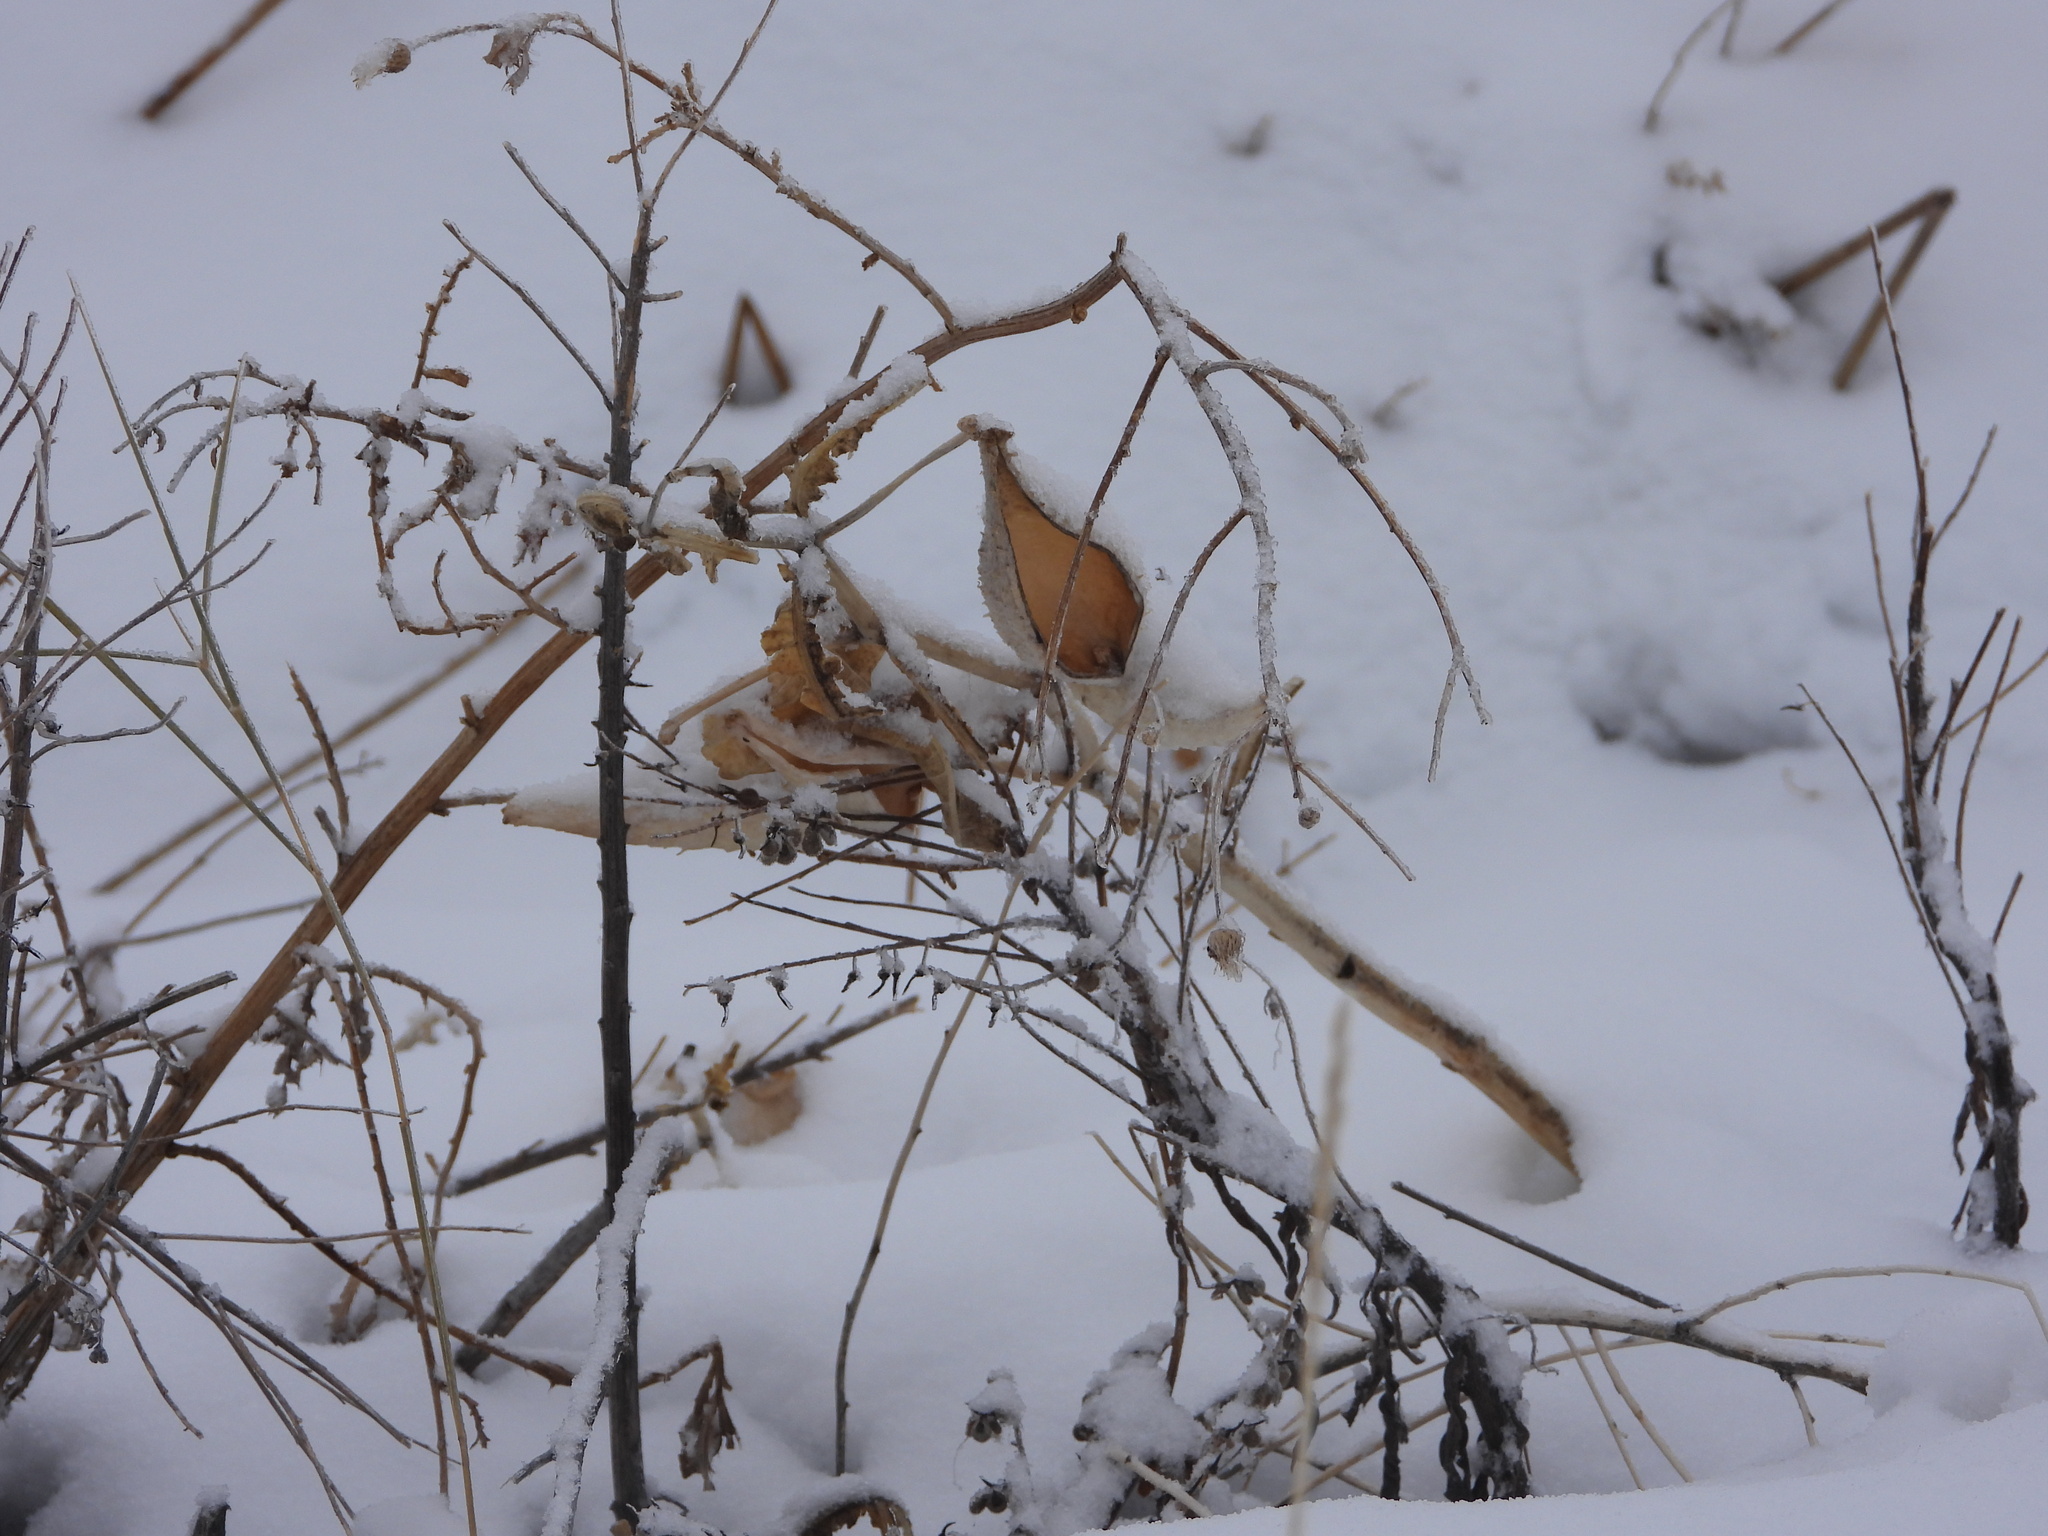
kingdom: Plantae
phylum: Tracheophyta
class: Magnoliopsida
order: Gentianales
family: Apocynaceae
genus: Asclepias
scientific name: Asclepias speciosa
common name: Showy milkweed
